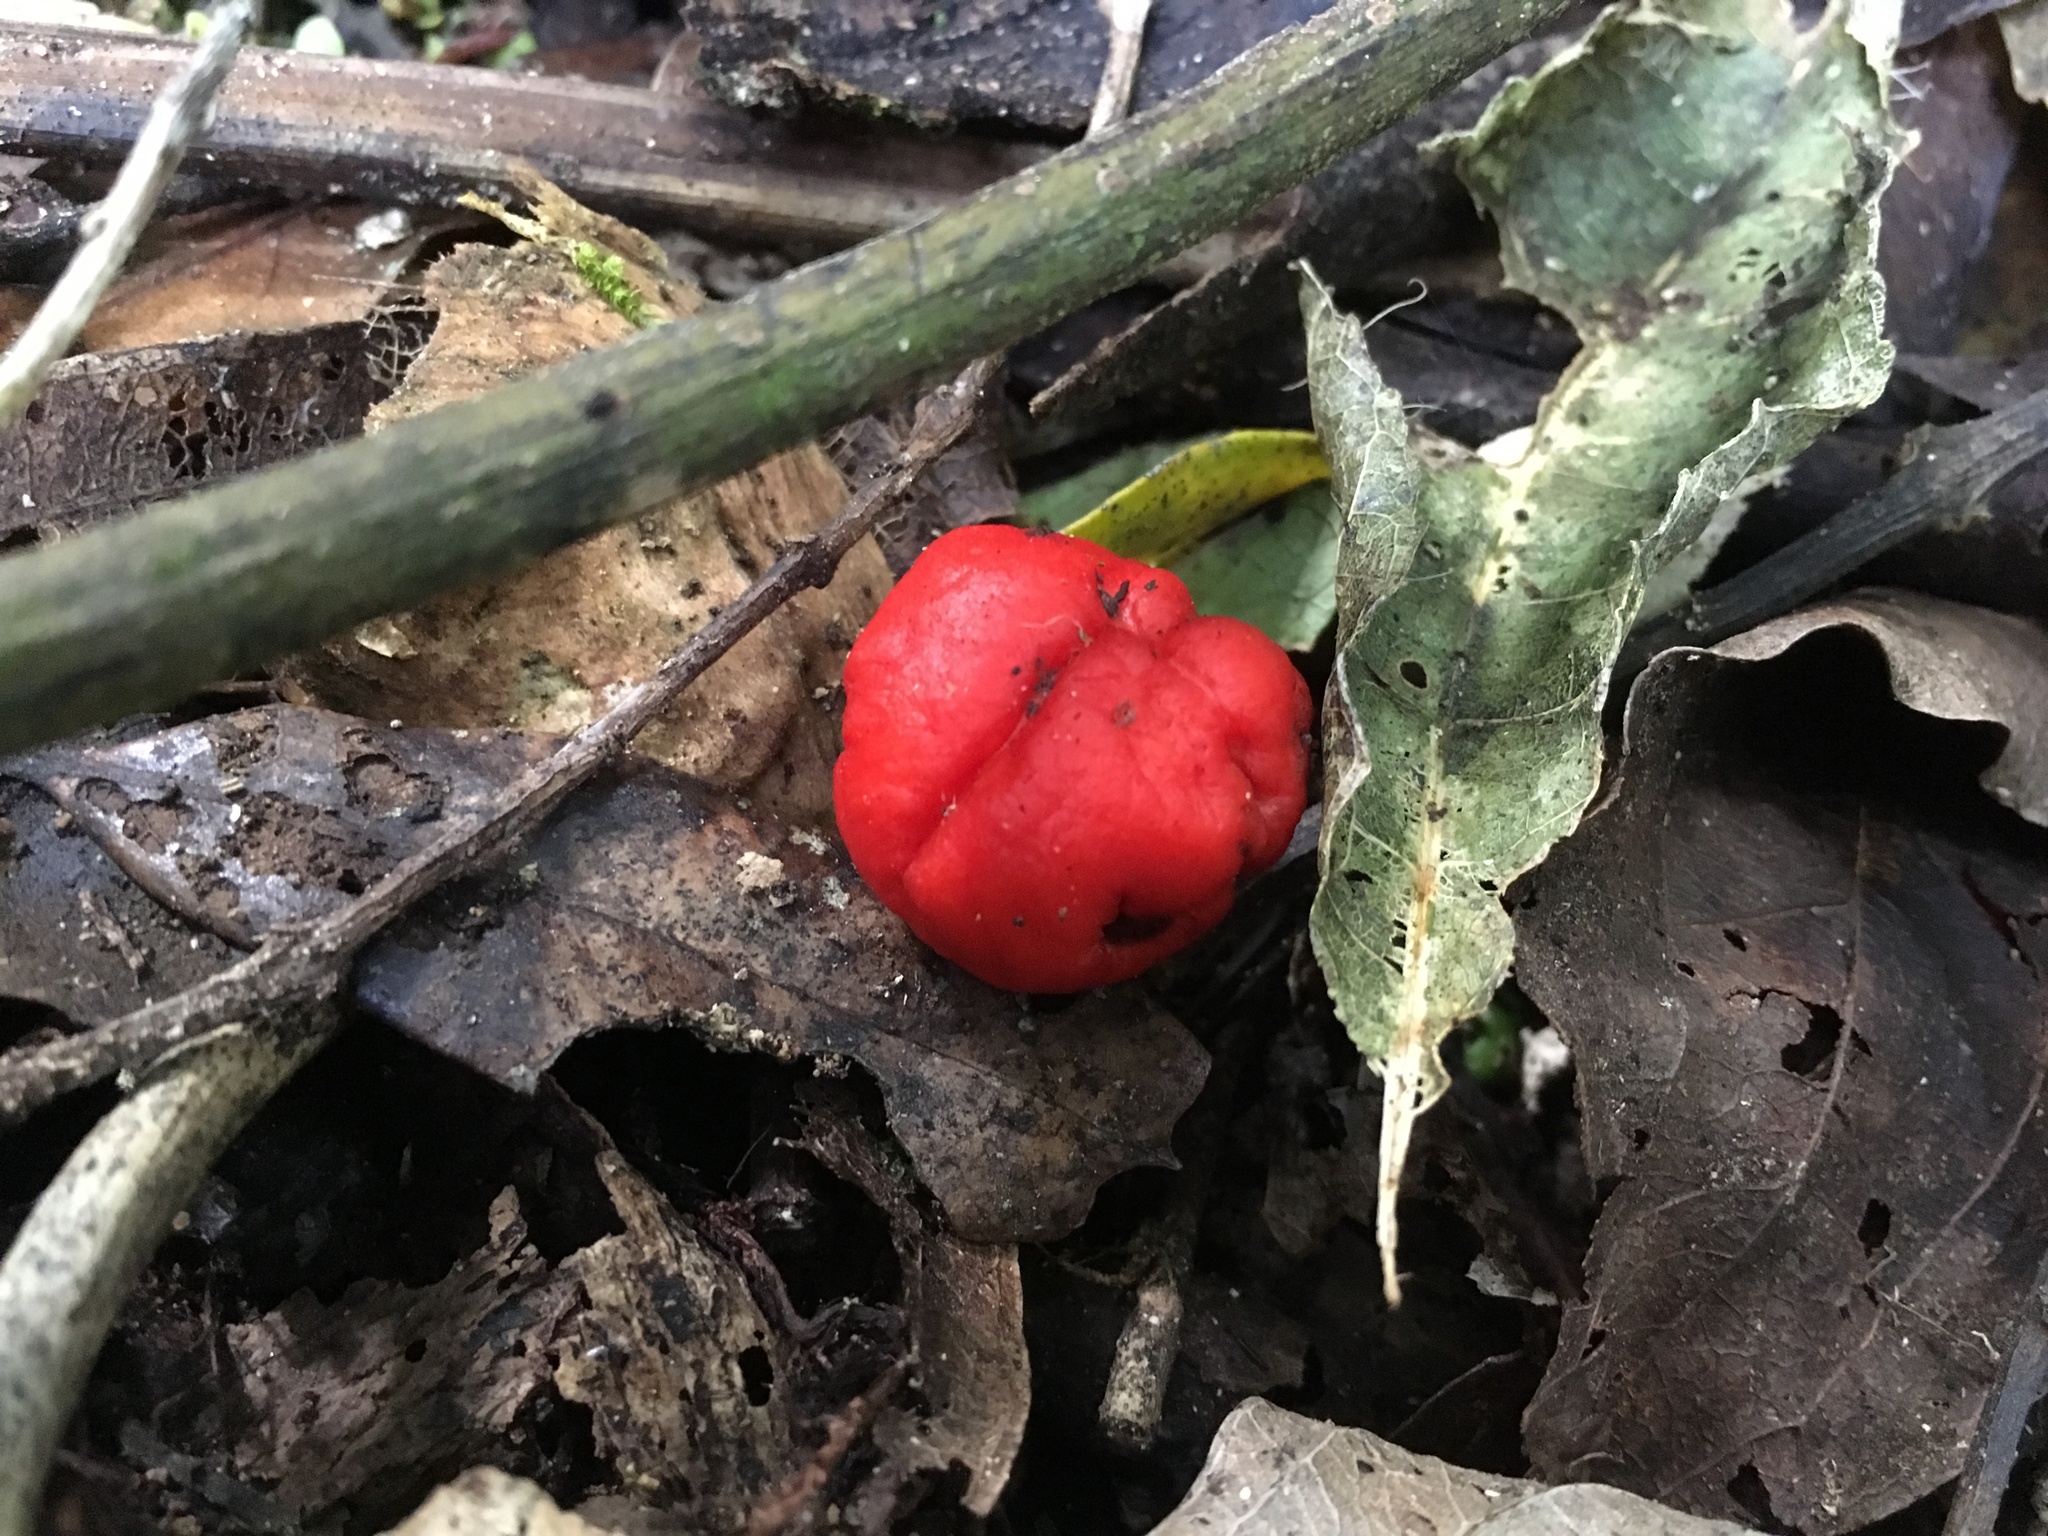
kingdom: Fungi
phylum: Basidiomycota
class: Agaricomycetes
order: Agaricales
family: Strophariaceae
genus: Leratiomyces
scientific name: Leratiomyces erythrocephalus
